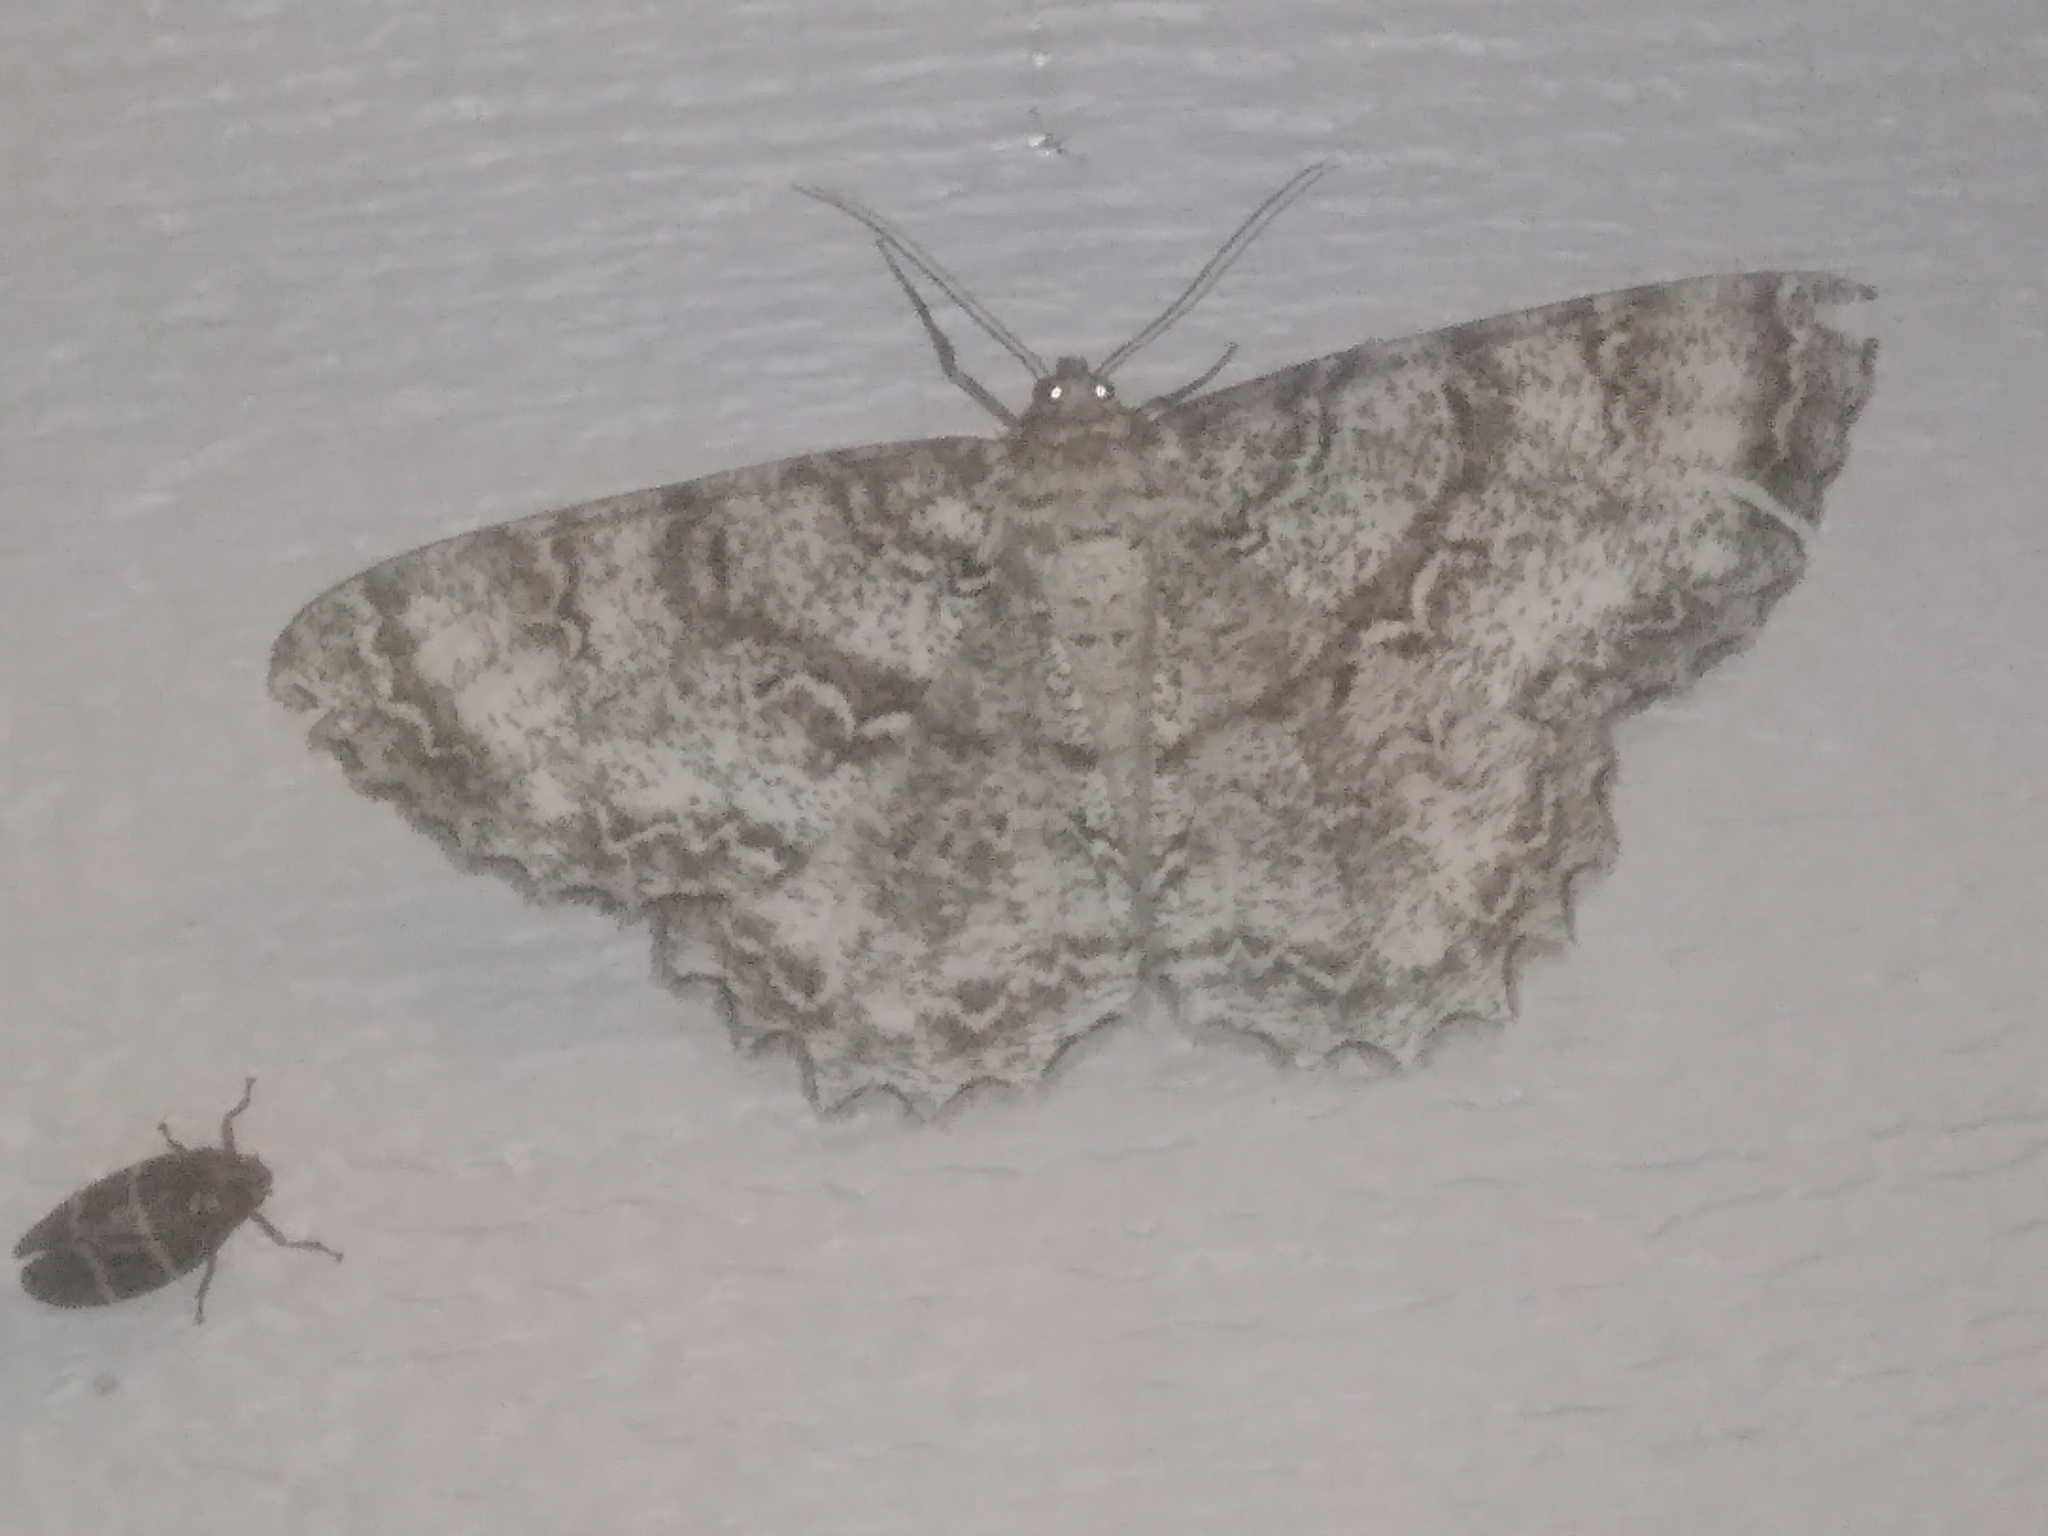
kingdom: Animalia
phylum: Arthropoda
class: Insecta
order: Lepidoptera
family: Geometridae
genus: Epimecis
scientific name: Epimecis hortaria
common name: Tulip-tree beauty
